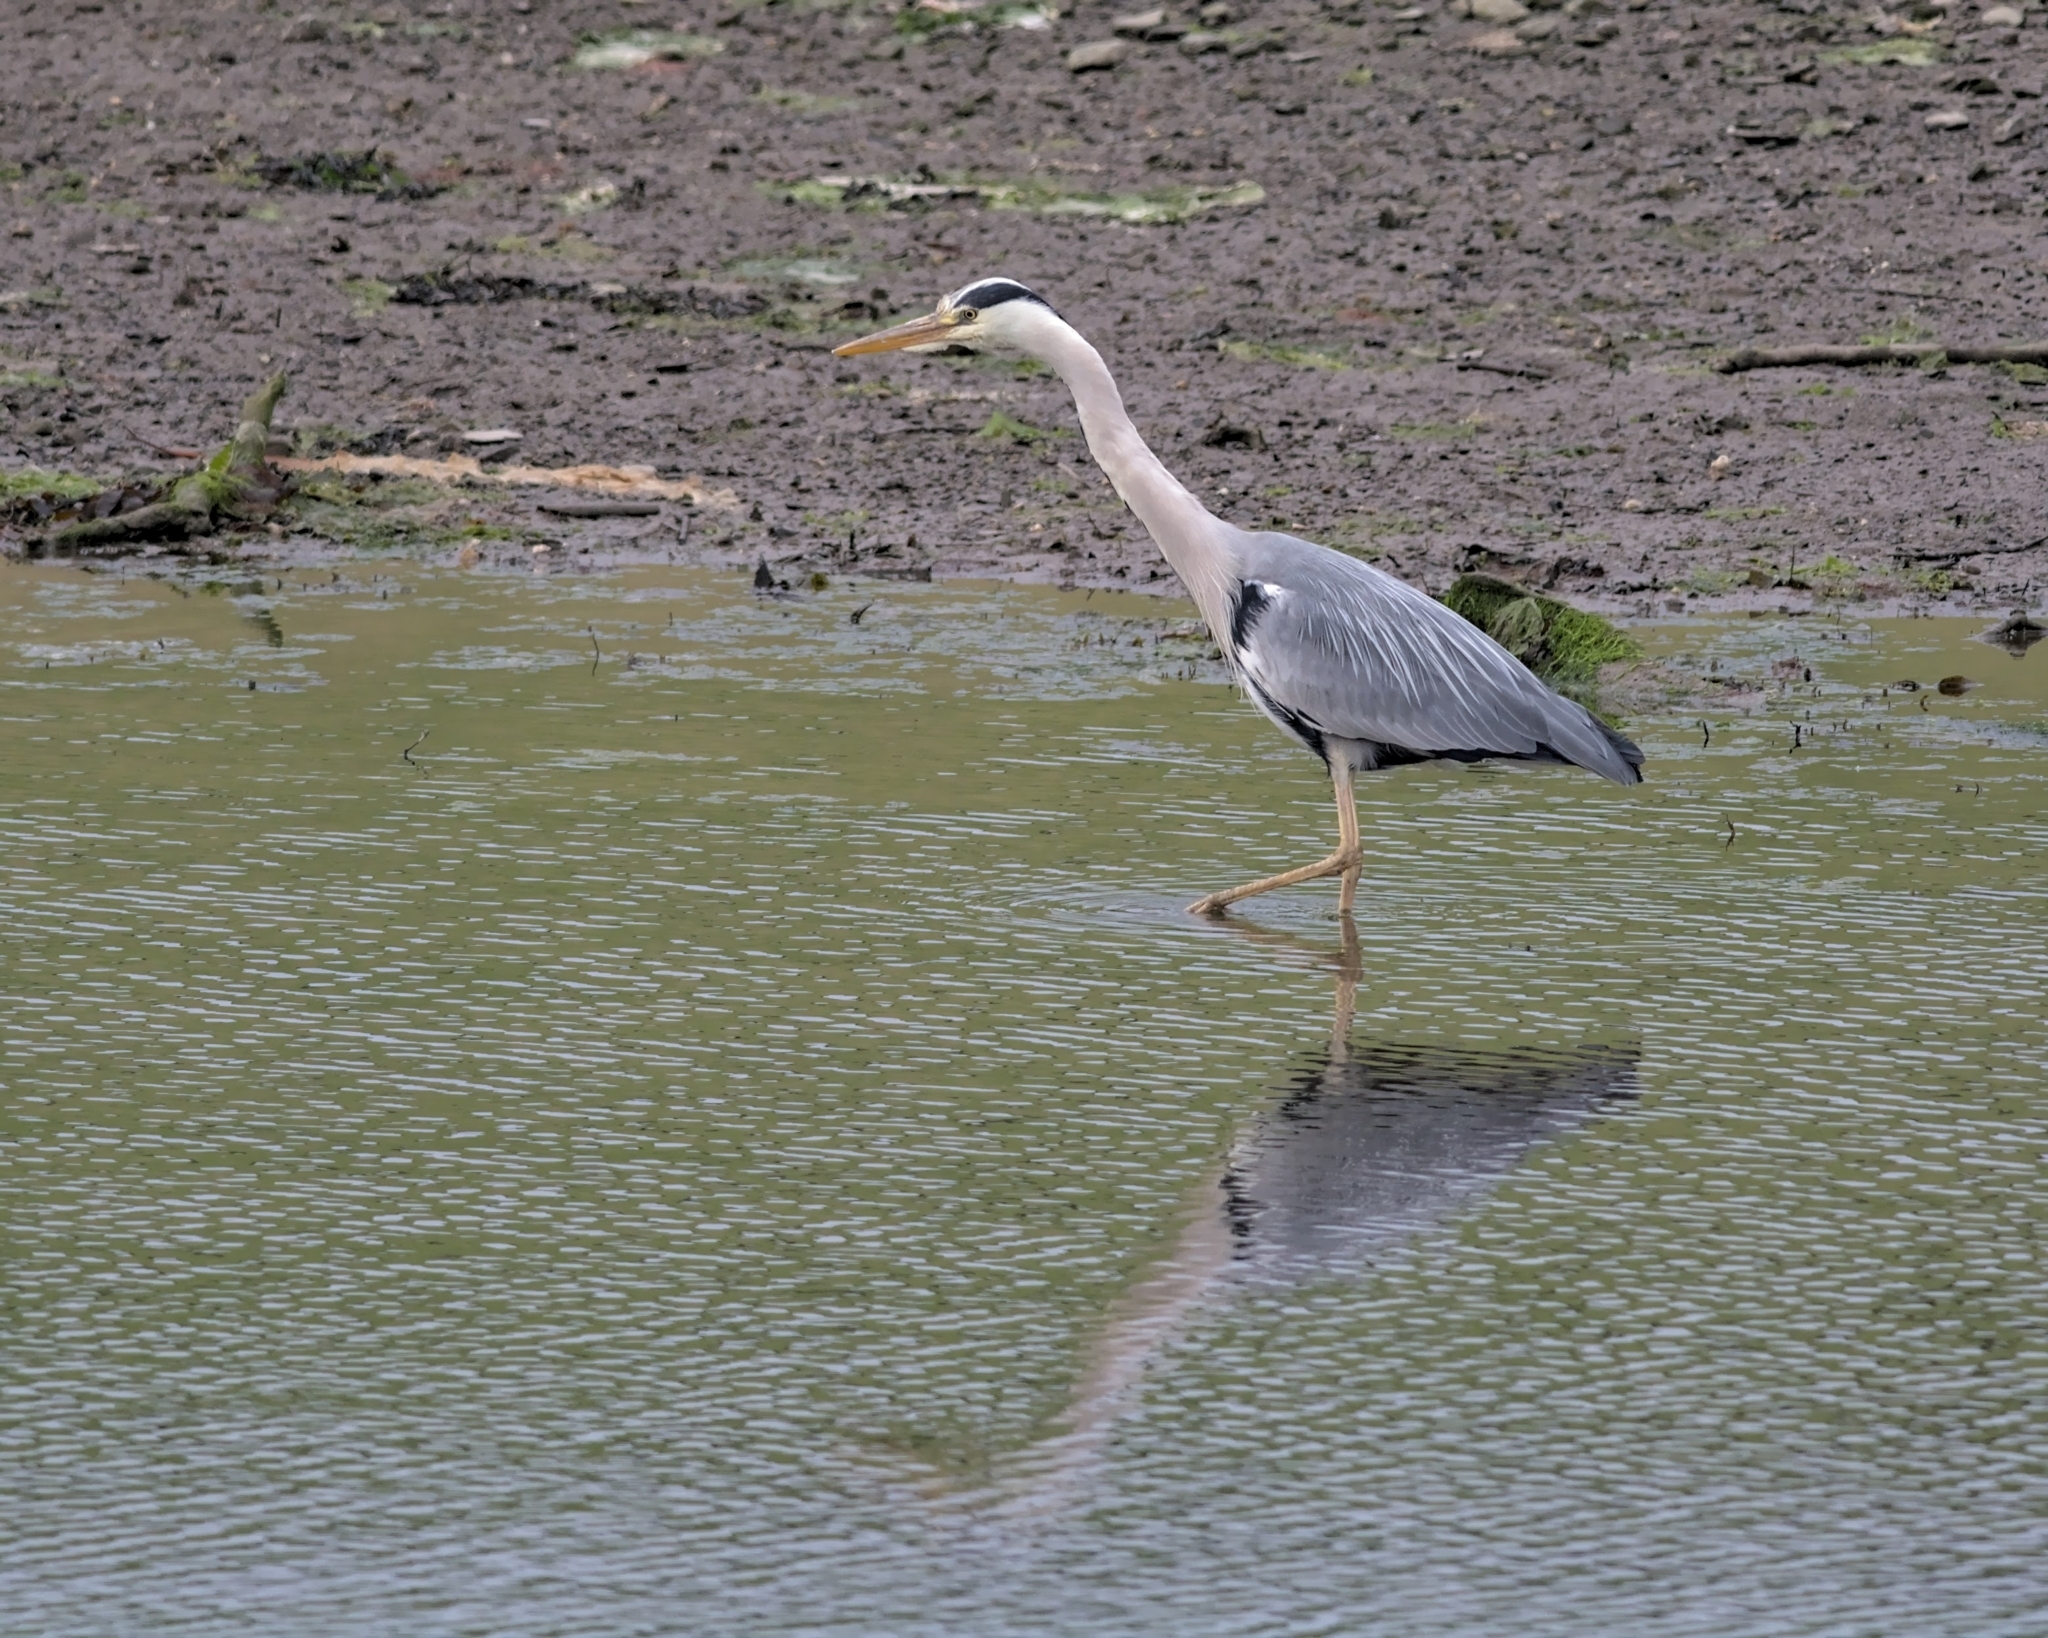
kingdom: Animalia
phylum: Chordata
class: Aves
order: Pelecaniformes
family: Ardeidae
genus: Ardea
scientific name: Ardea cinerea
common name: Grey heron
